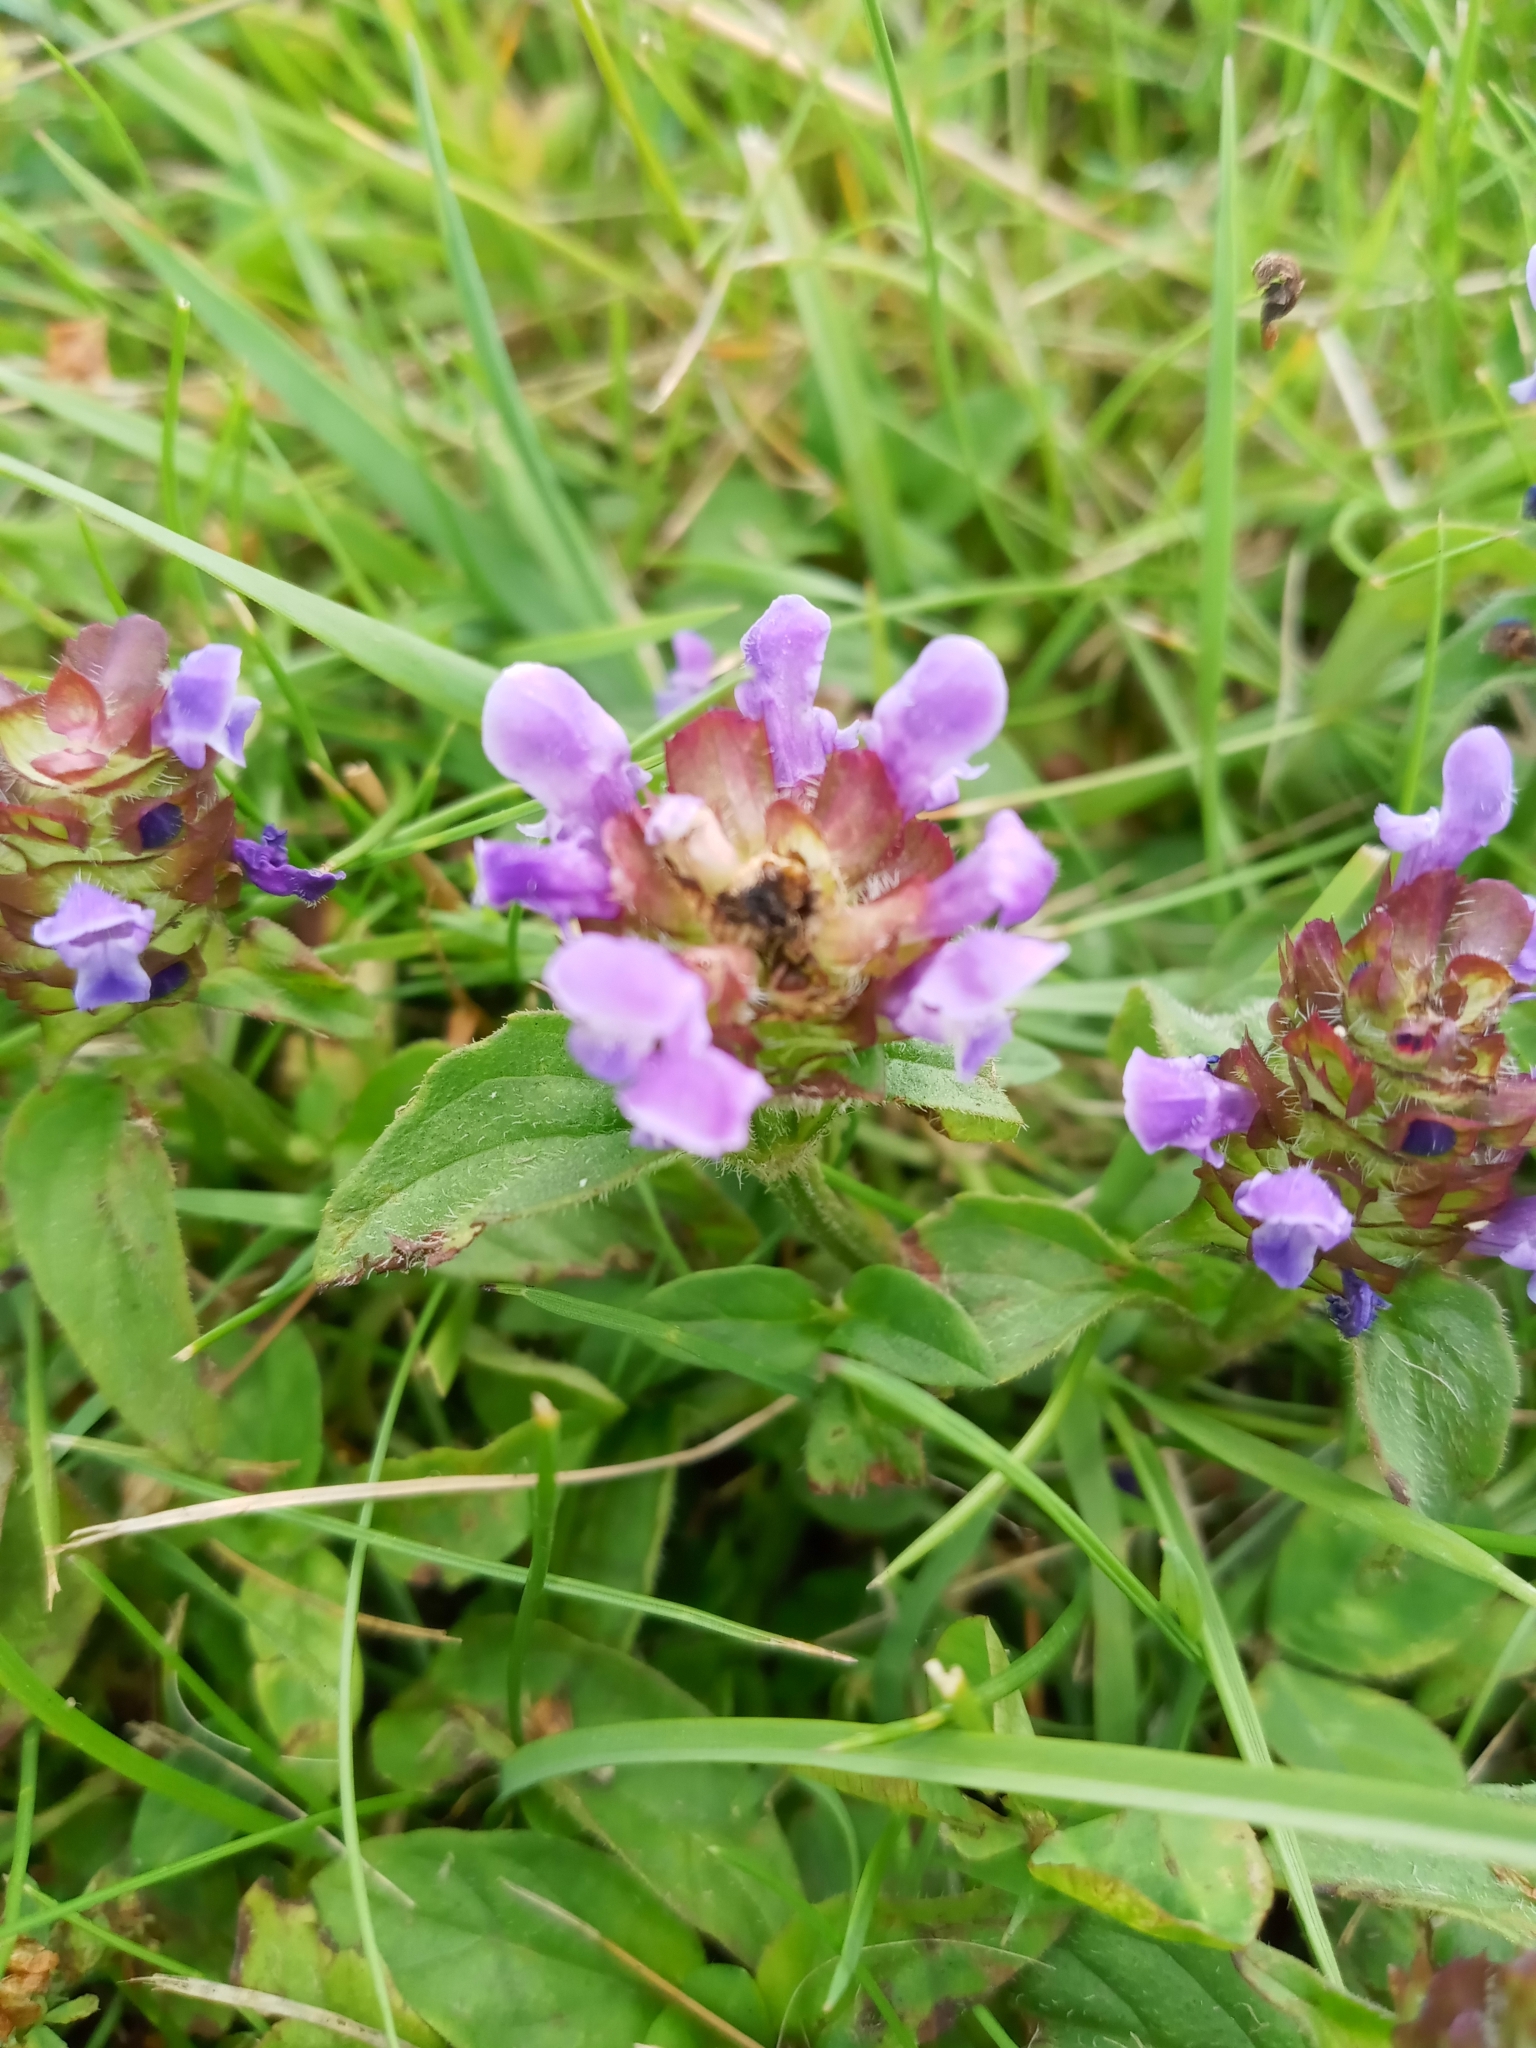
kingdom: Plantae
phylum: Tracheophyta
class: Magnoliopsida
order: Lamiales
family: Lamiaceae
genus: Prunella
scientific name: Prunella vulgaris
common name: Heal-all
